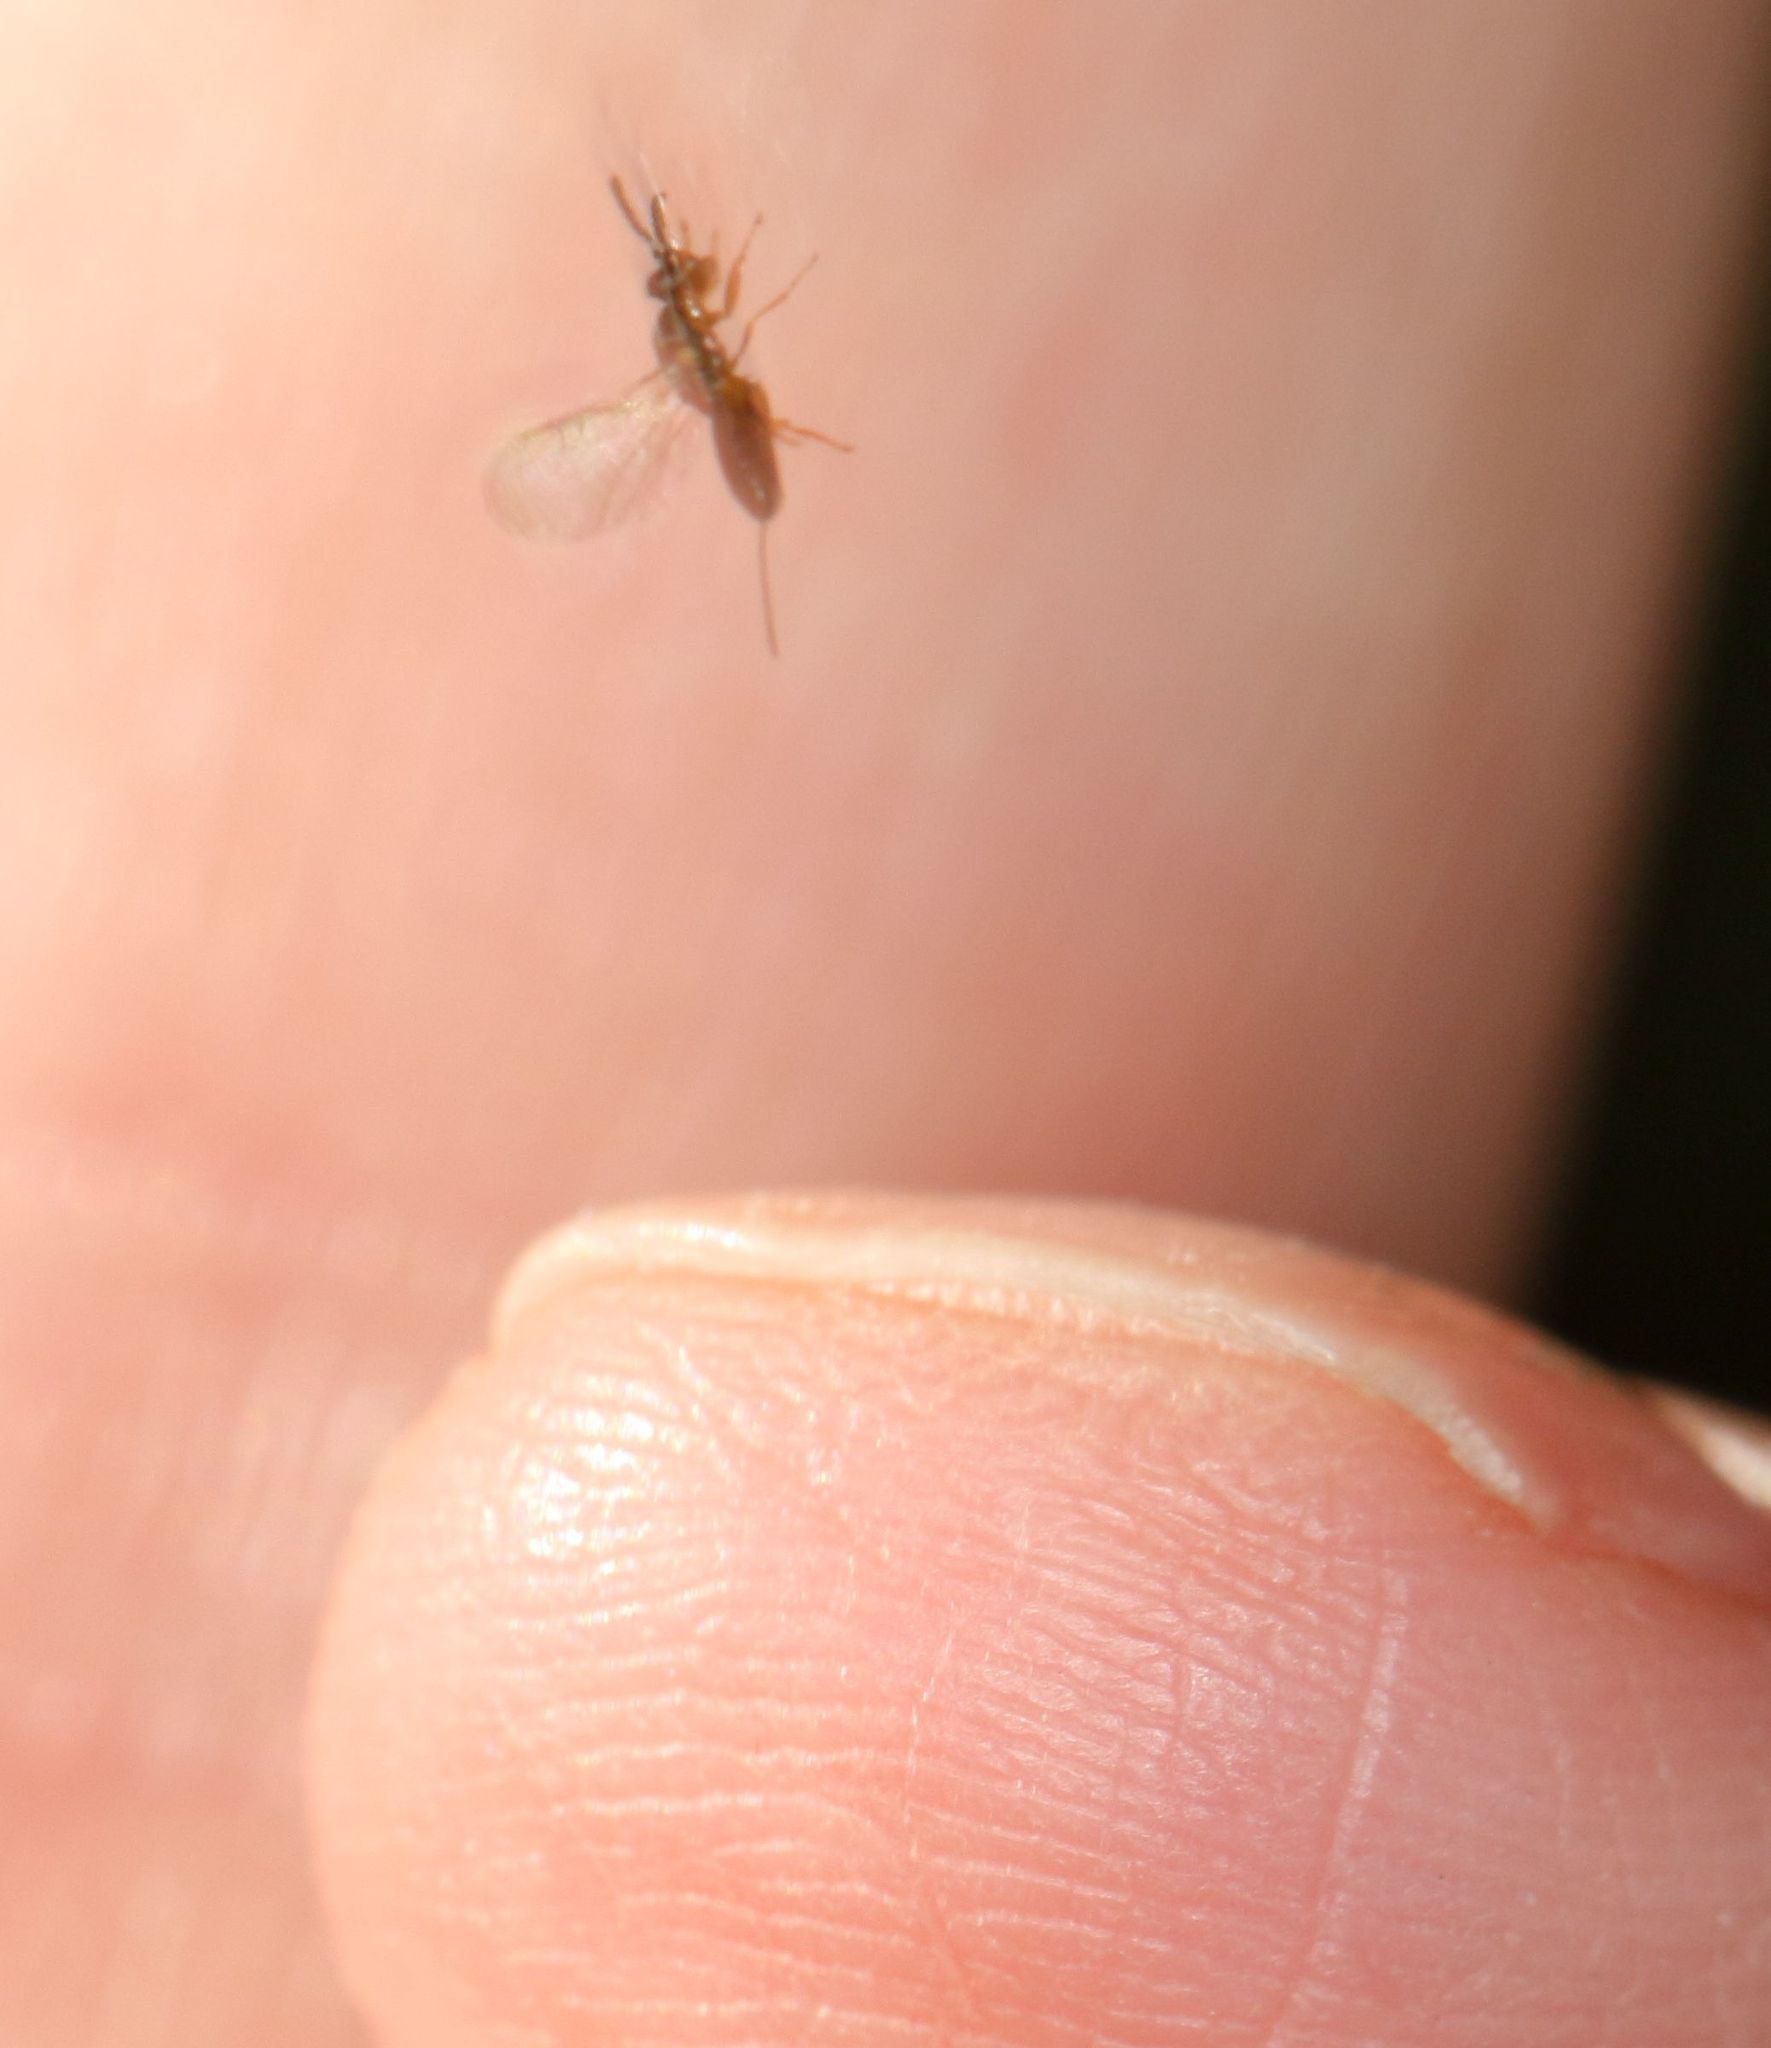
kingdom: Animalia
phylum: Arthropoda
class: Insecta
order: Hymenoptera
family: Agaonidae
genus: Ceratosolen
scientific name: Ceratosolen capensis
